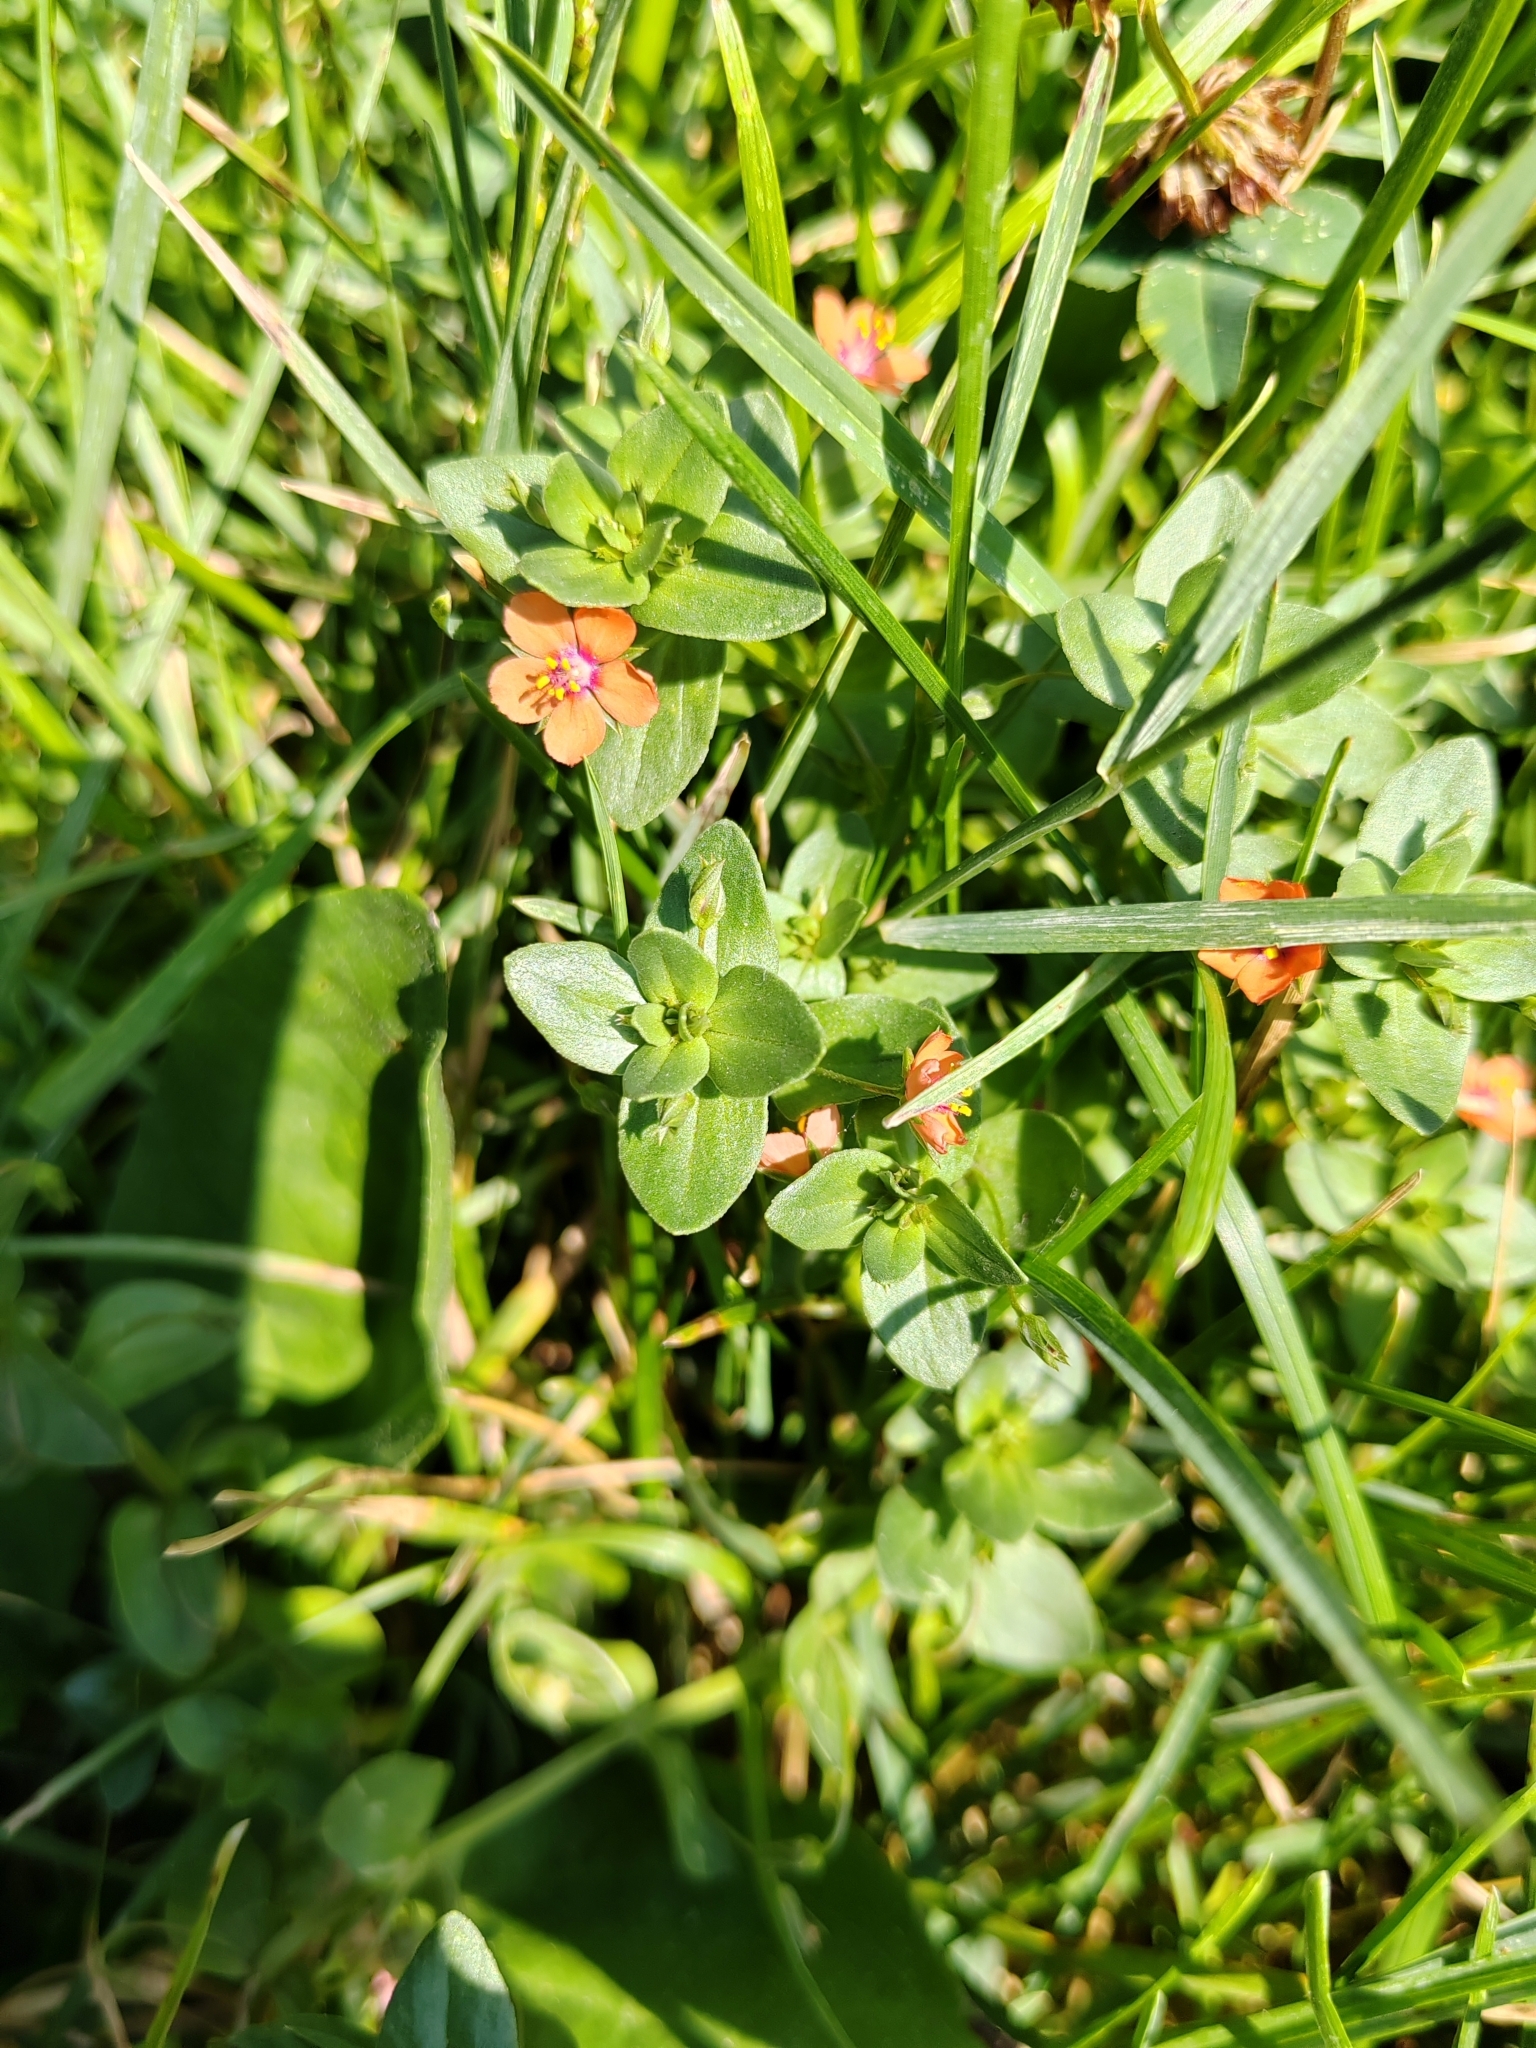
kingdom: Plantae
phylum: Tracheophyta
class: Magnoliopsida
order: Ericales
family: Primulaceae
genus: Lysimachia
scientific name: Lysimachia arvensis
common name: Scarlet pimpernel
